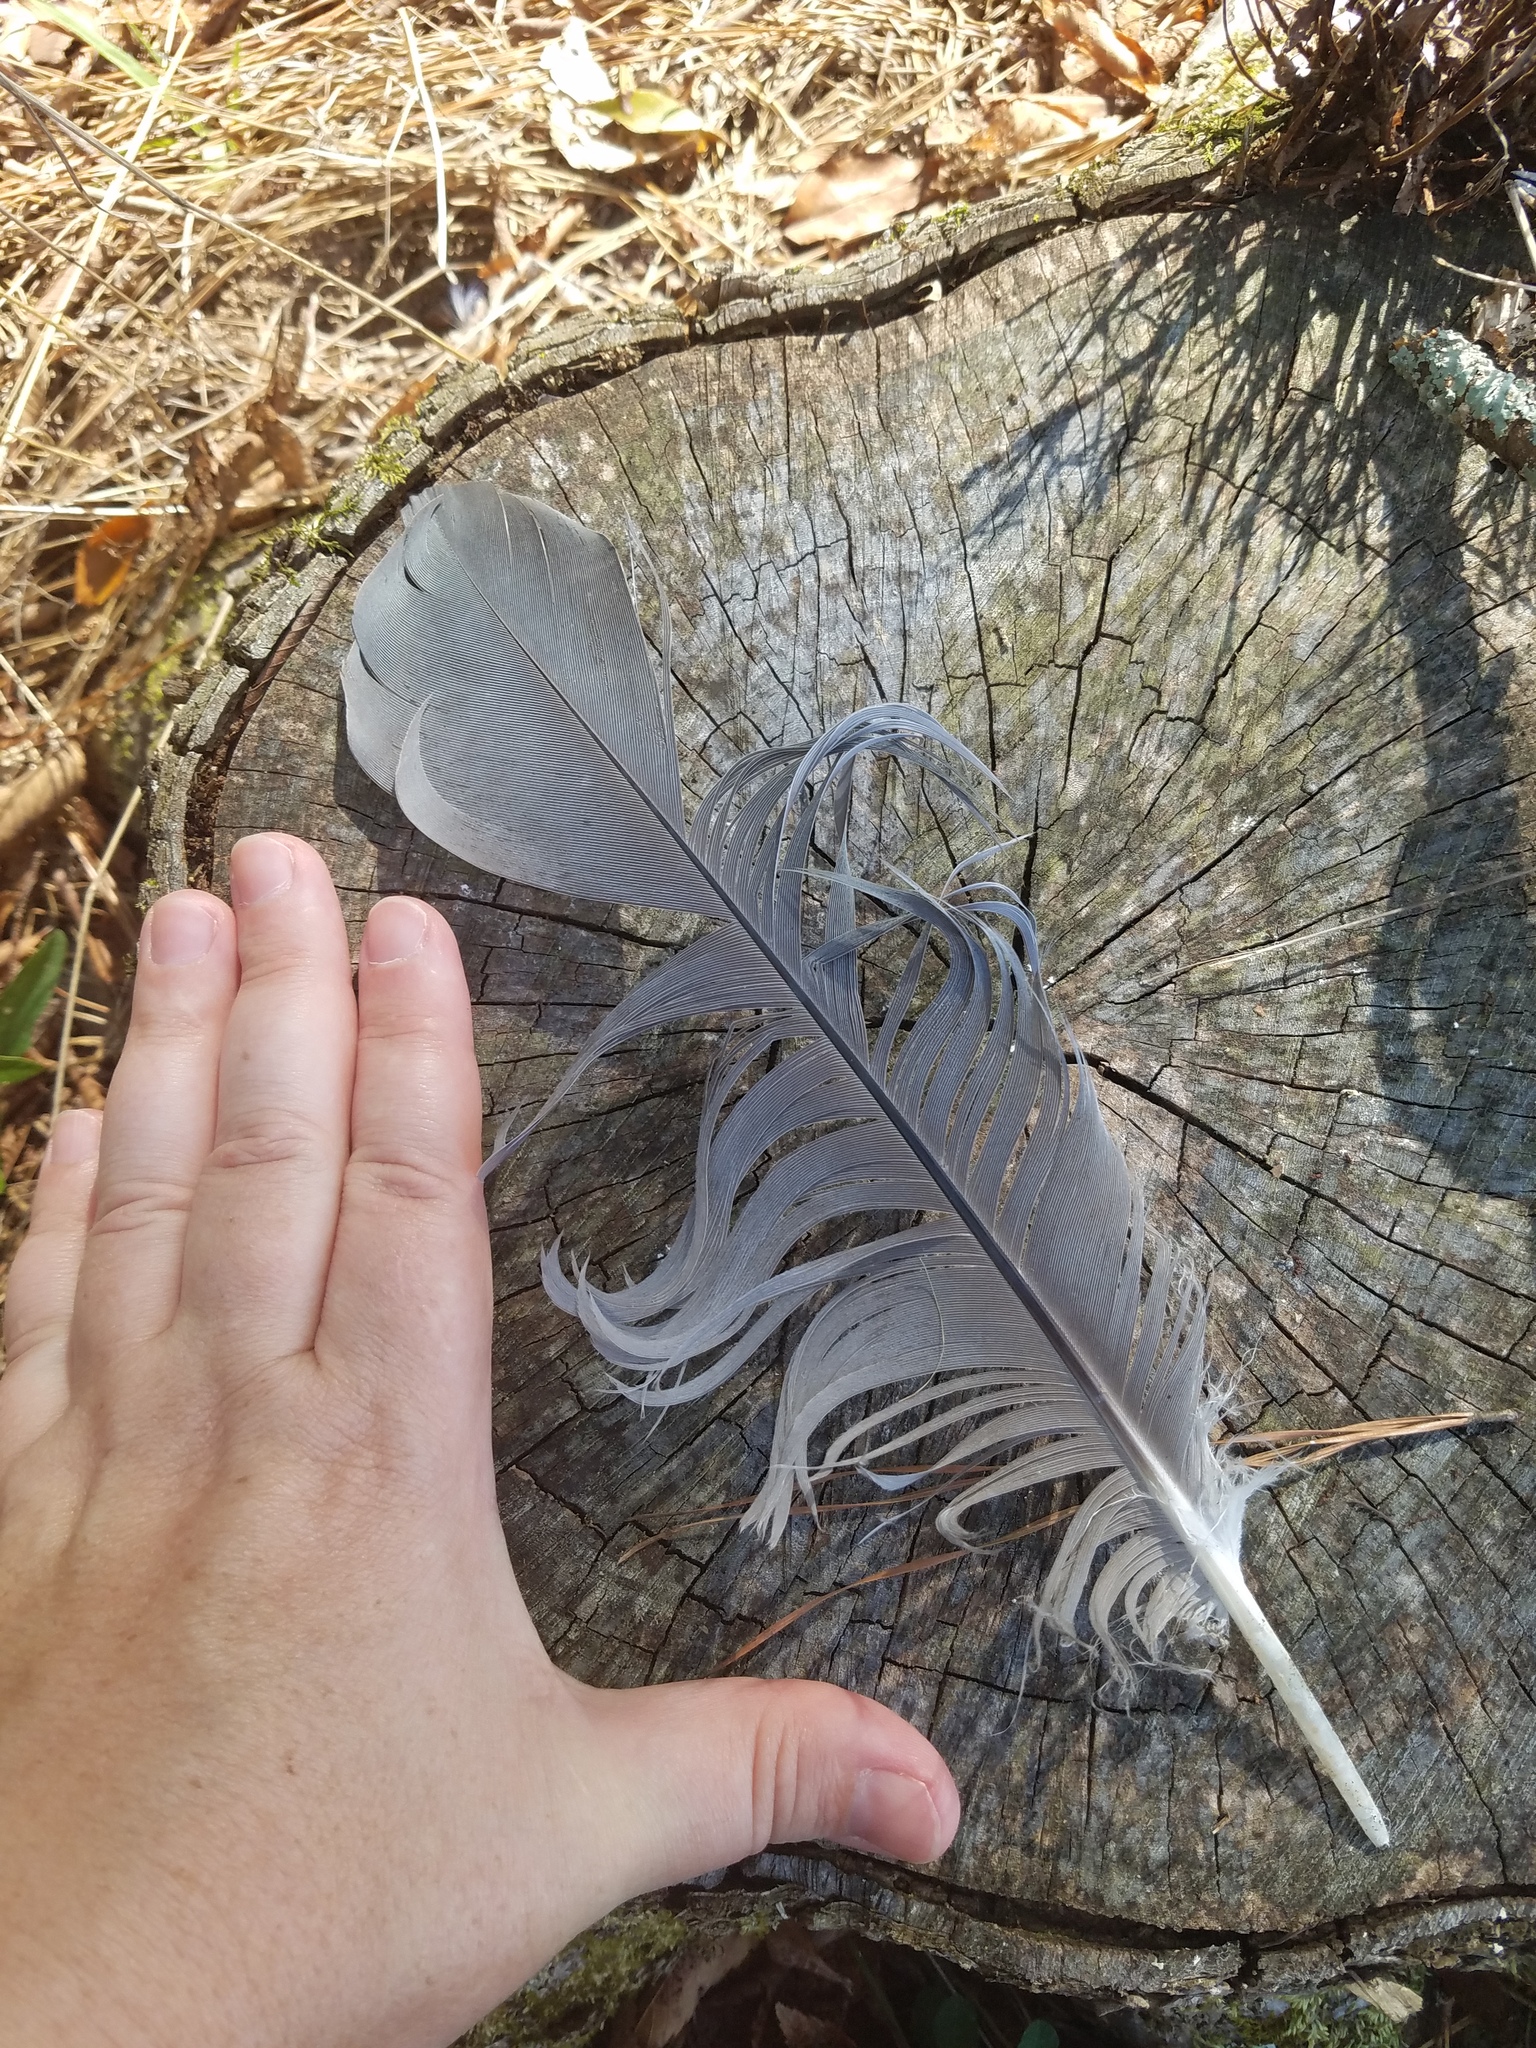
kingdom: Animalia
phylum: Chordata
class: Aves
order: Pelecaniformes
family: Ardeidae
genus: Ardea
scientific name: Ardea herodias
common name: Great blue heron
